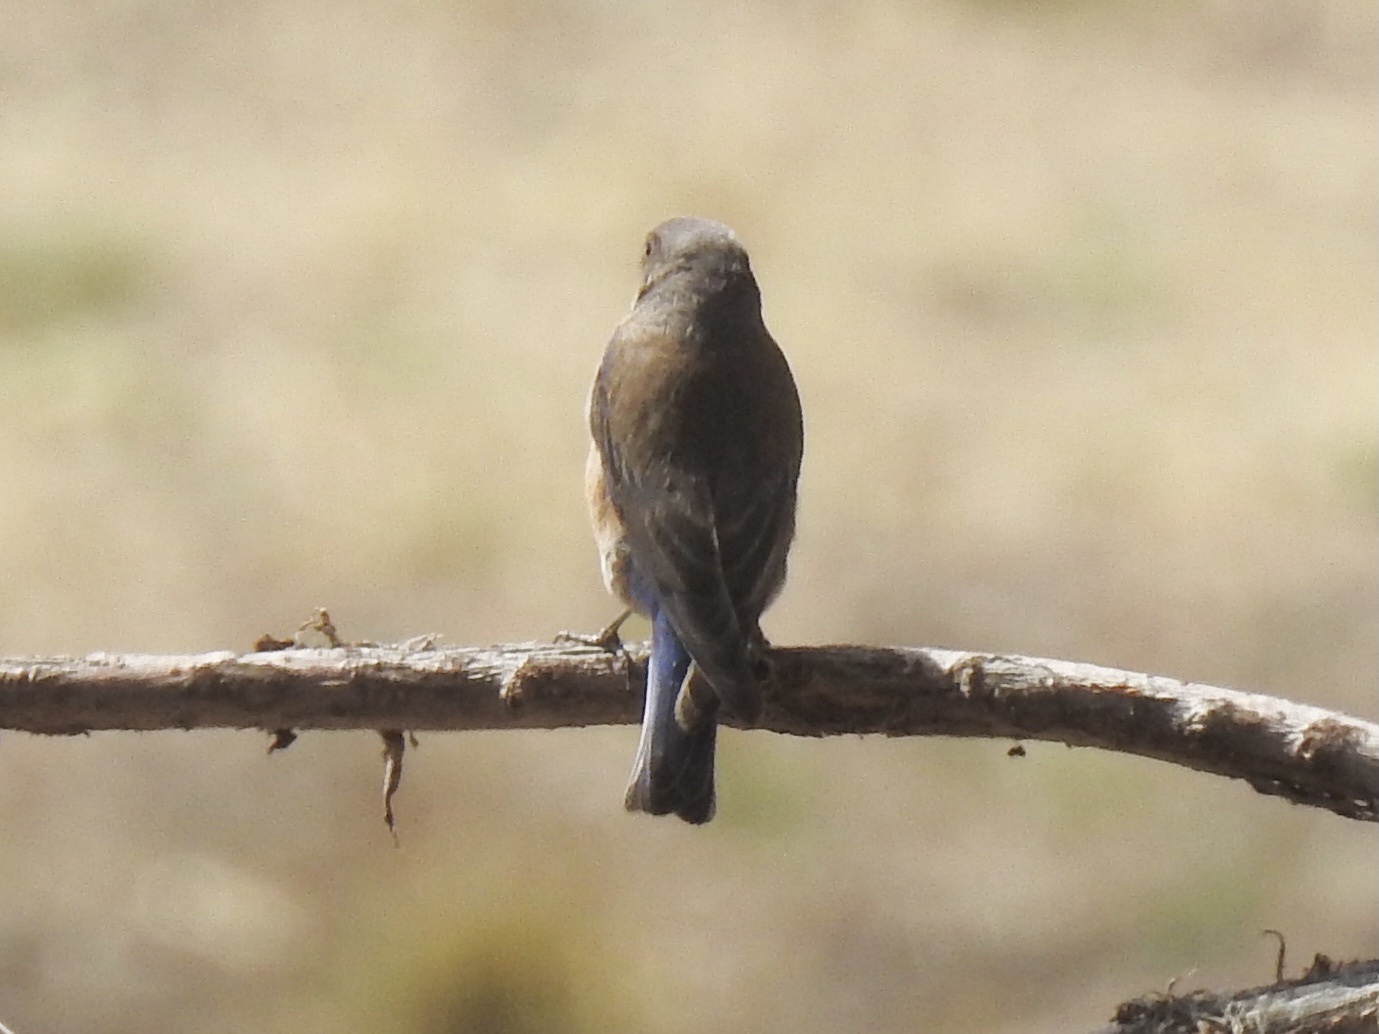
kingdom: Animalia
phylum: Chordata
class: Aves
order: Passeriformes
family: Turdidae
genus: Sialia
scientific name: Sialia mexicana
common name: Western bluebird
